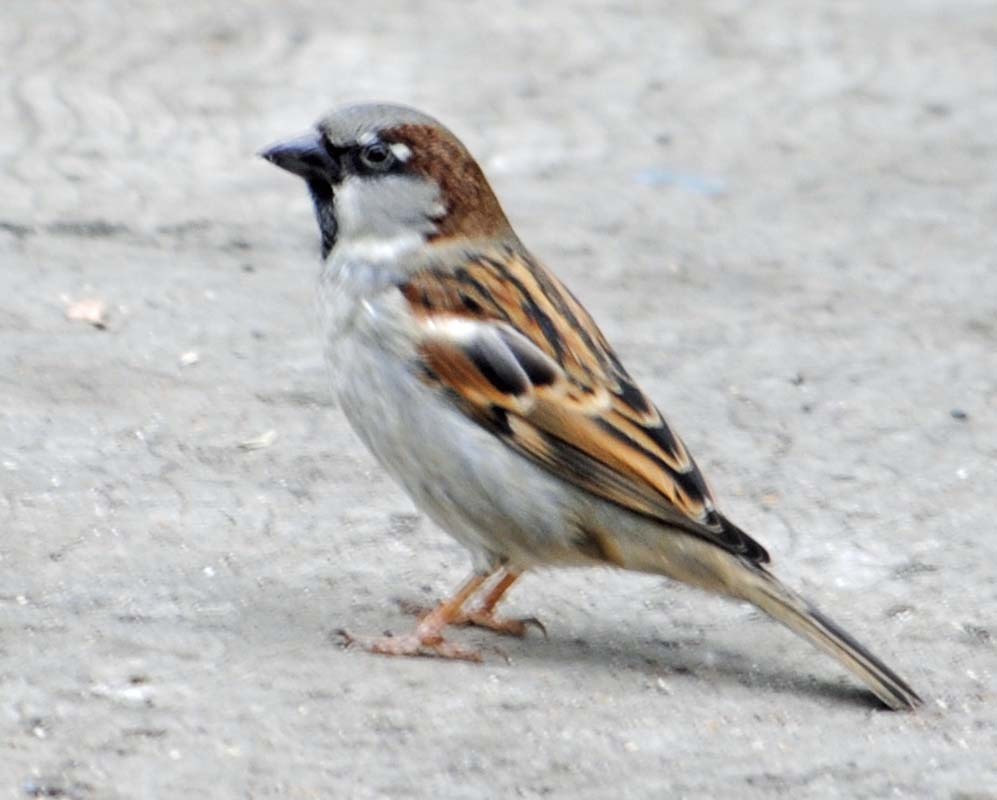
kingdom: Animalia
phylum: Chordata
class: Aves
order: Passeriformes
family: Passeridae
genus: Passer
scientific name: Passer domesticus
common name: House sparrow
